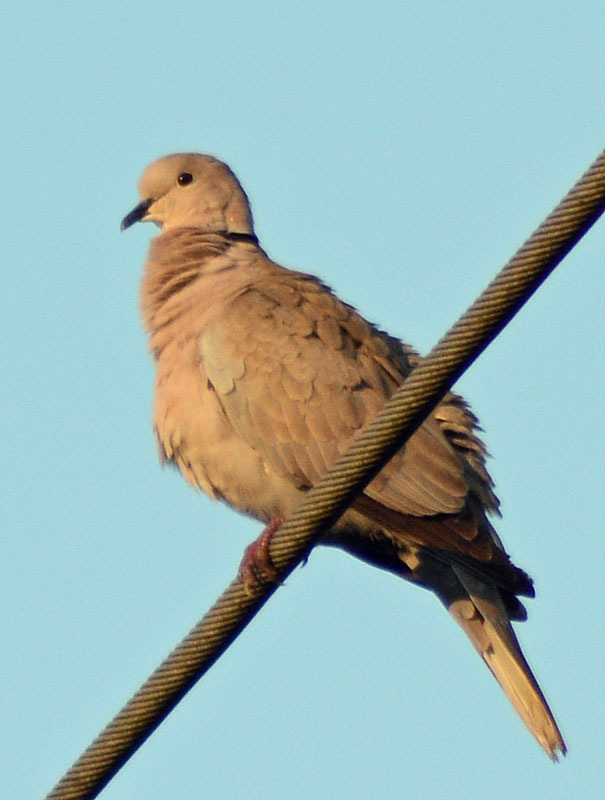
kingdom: Animalia
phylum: Chordata
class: Aves
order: Columbiformes
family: Columbidae
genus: Streptopelia
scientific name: Streptopelia decaocto
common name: Eurasian collared dove
